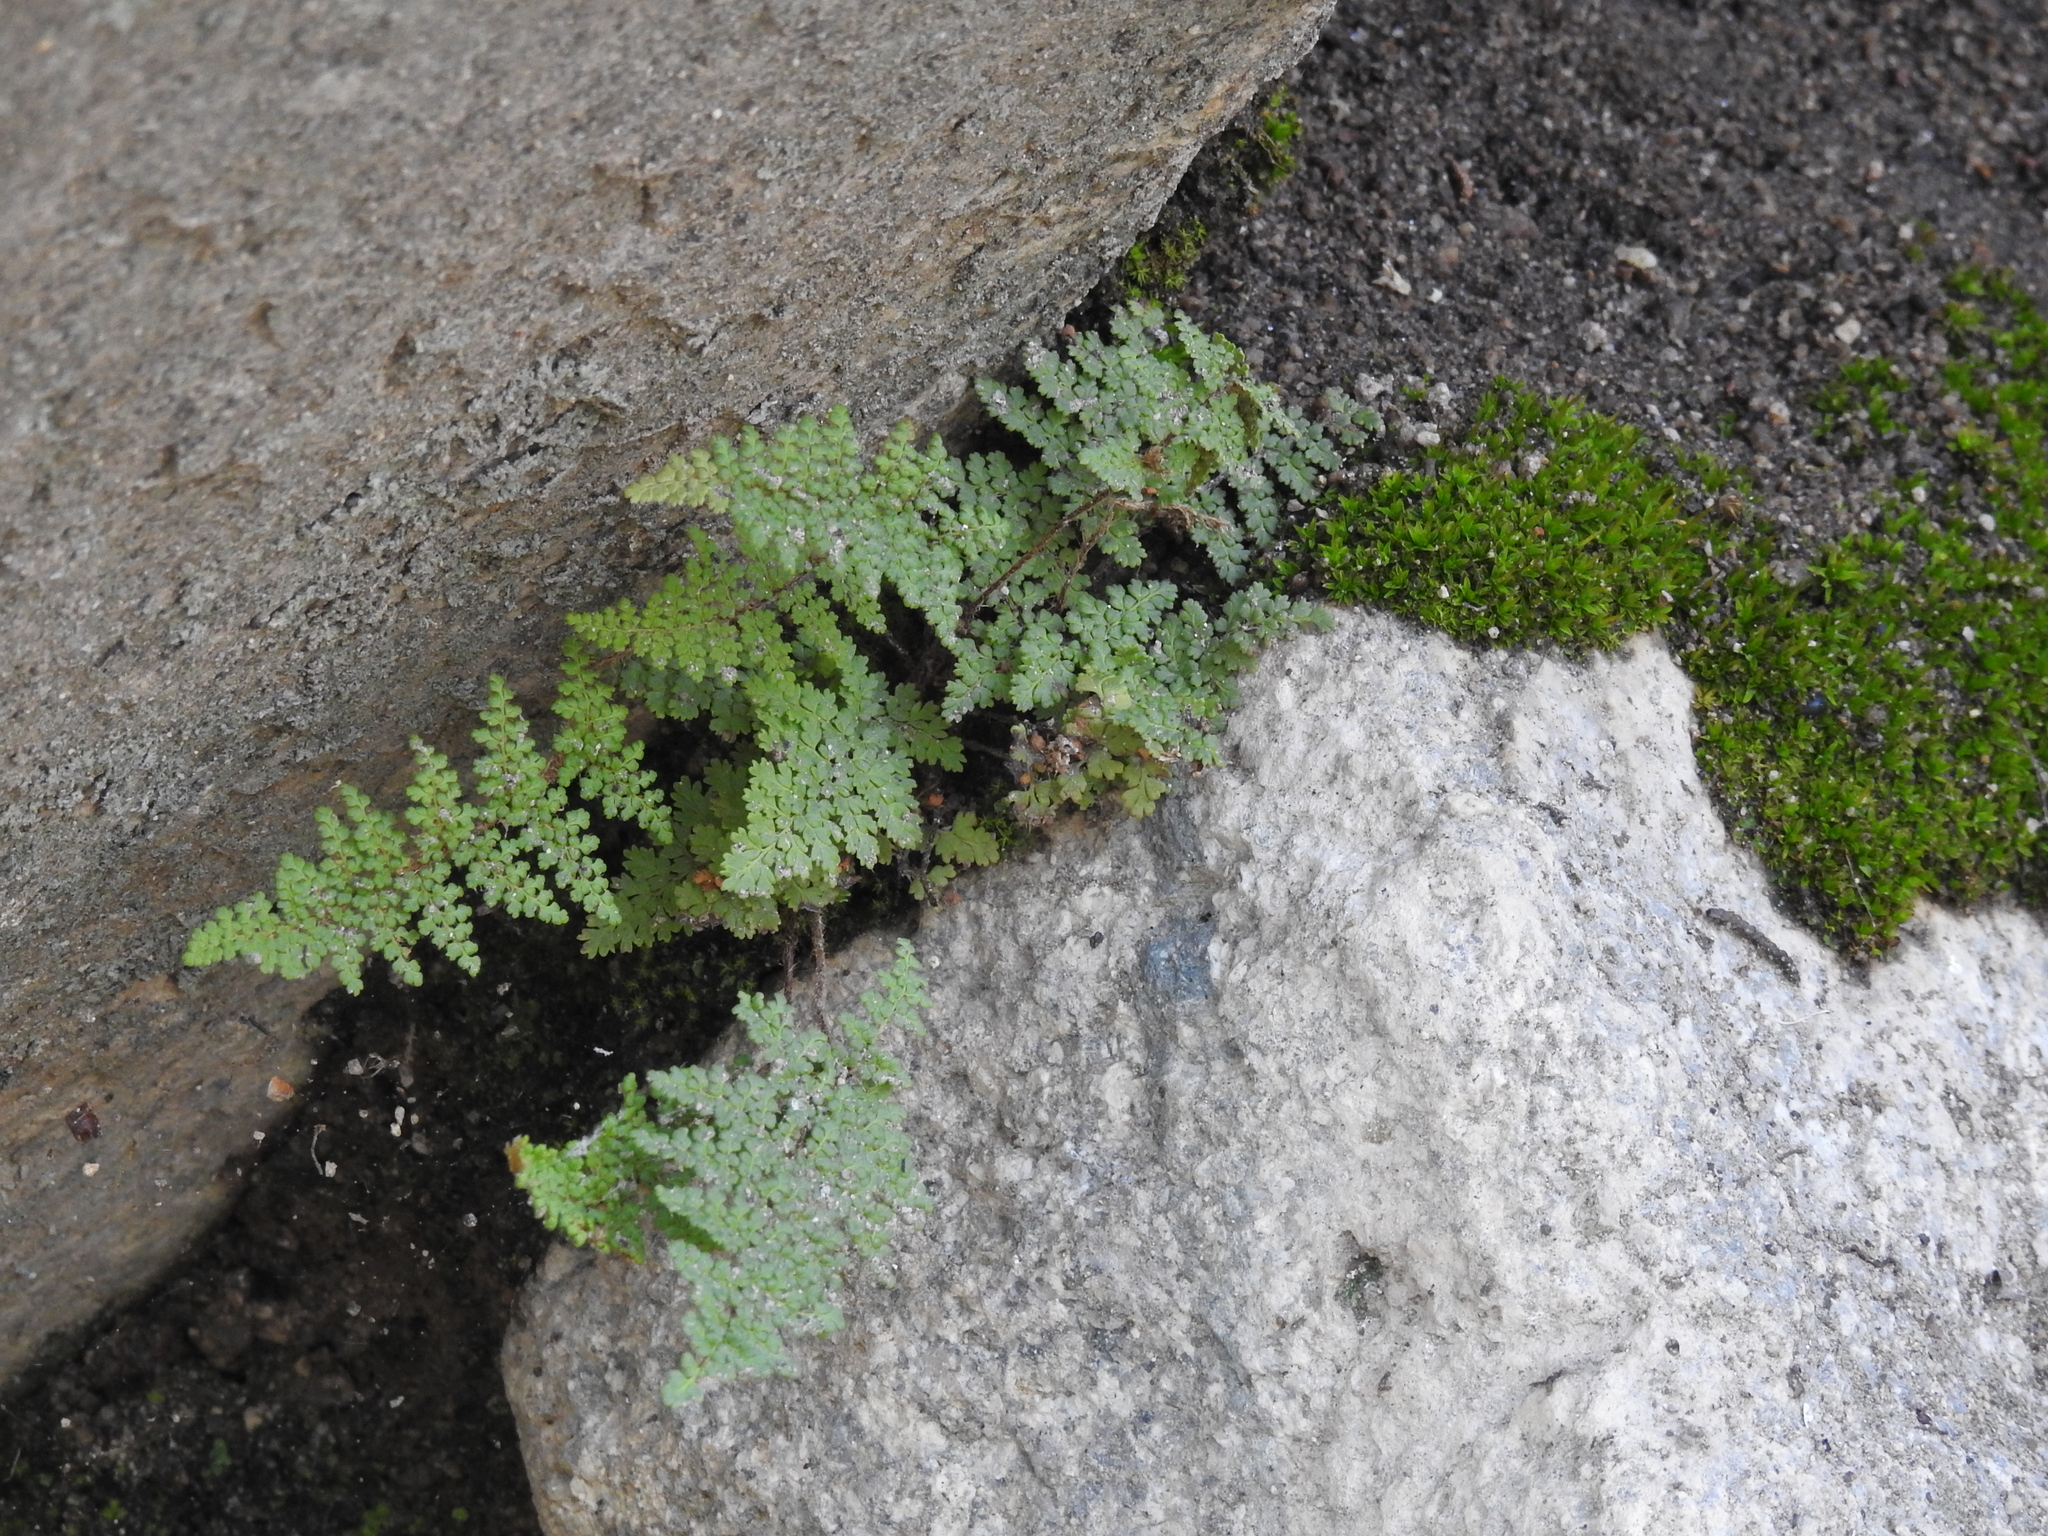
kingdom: Plantae
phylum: Tracheophyta
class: Polypodiopsida
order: Polypodiales
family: Pteridaceae
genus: Myriopteris
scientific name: Myriopteris fendleri
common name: Fendler's lip fern
